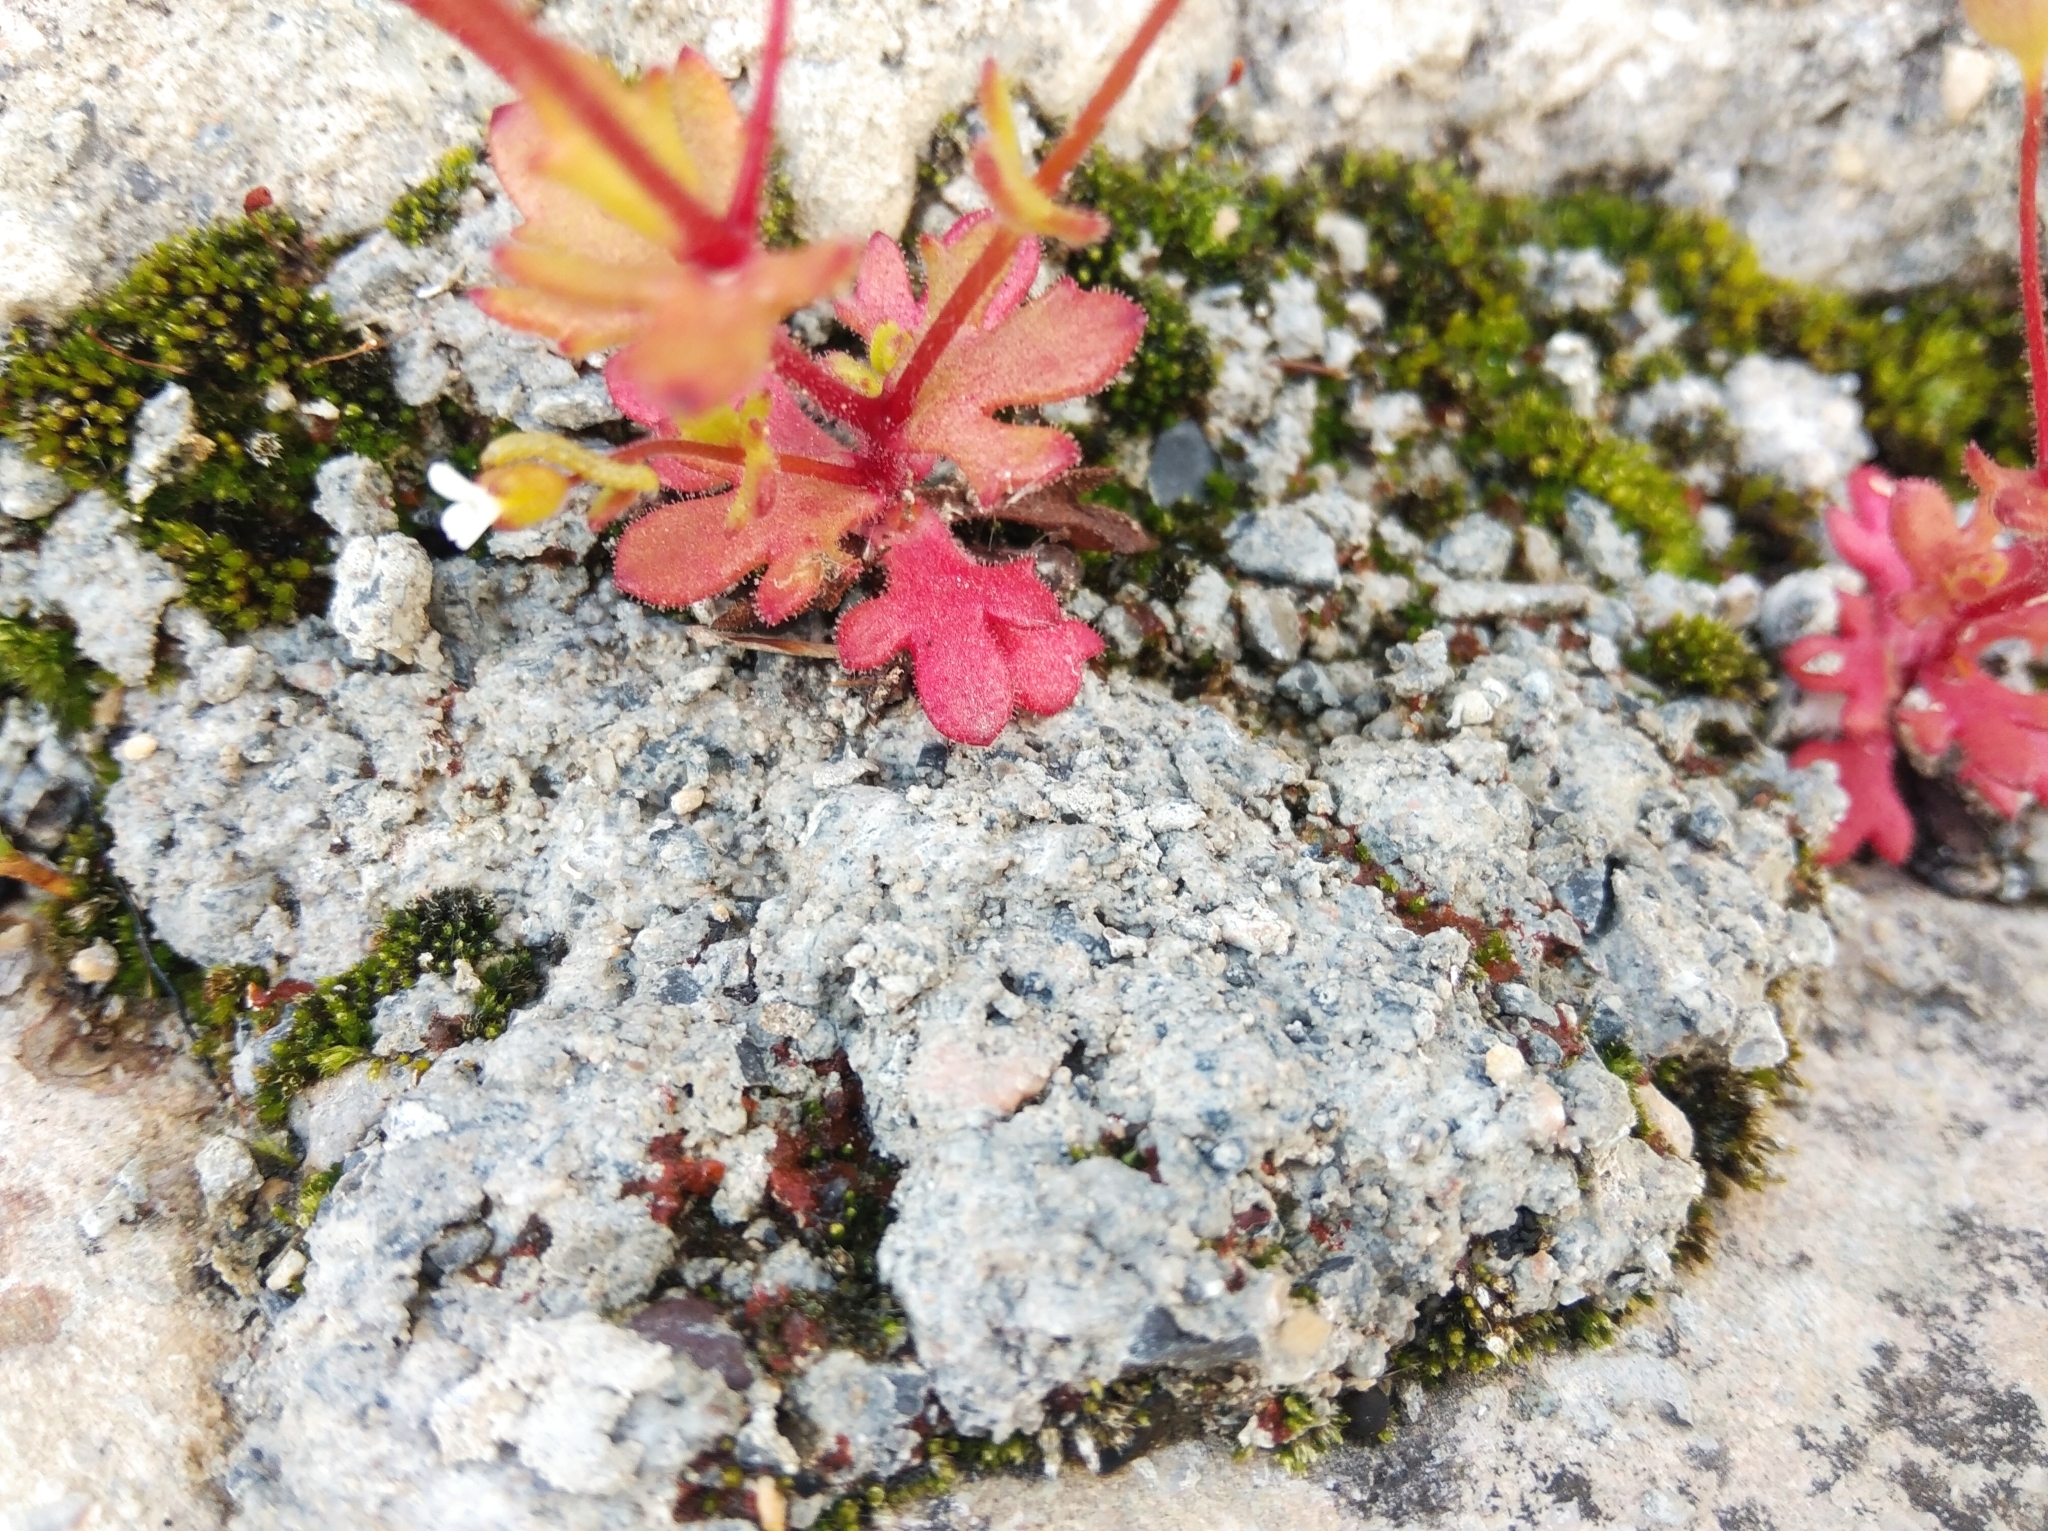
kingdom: Plantae
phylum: Tracheophyta
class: Magnoliopsida
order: Saxifragales
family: Saxifragaceae
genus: Saxifraga
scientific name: Saxifraga tridactylites
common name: Rue-leaved saxifrage
